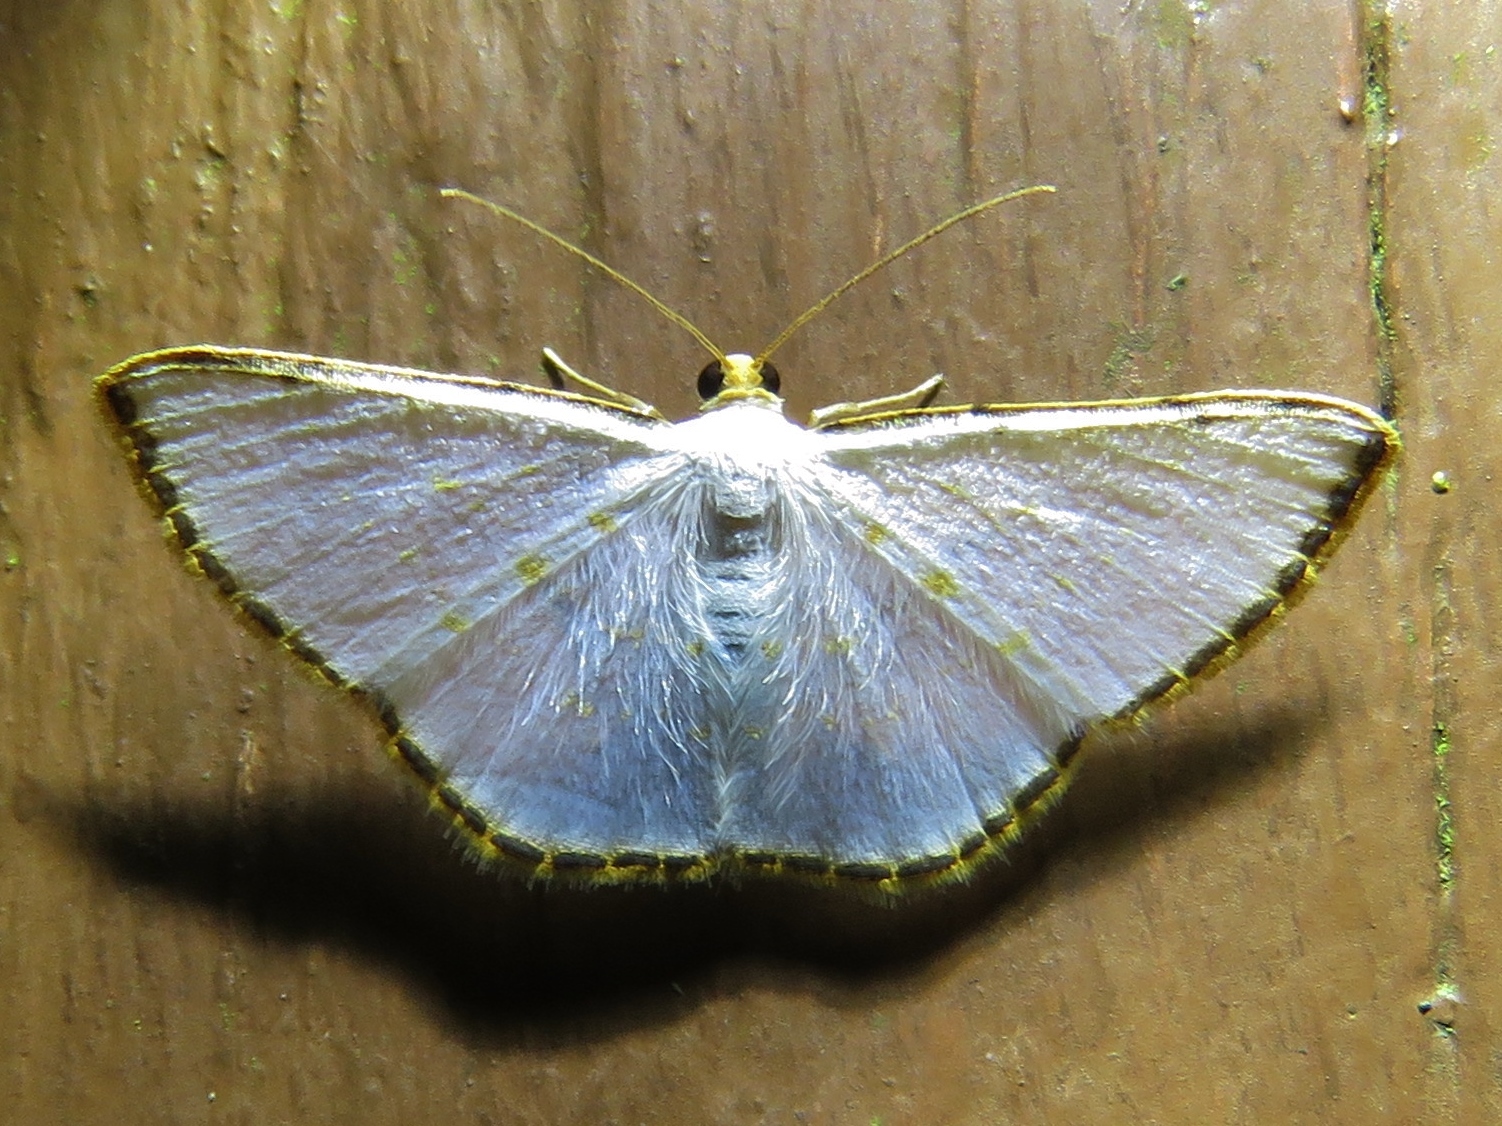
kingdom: Animalia
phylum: Arthropoda
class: Insecta
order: Lepidoptera
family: Geometridae
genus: Leuciris
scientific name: Leuciris fimbriaria
